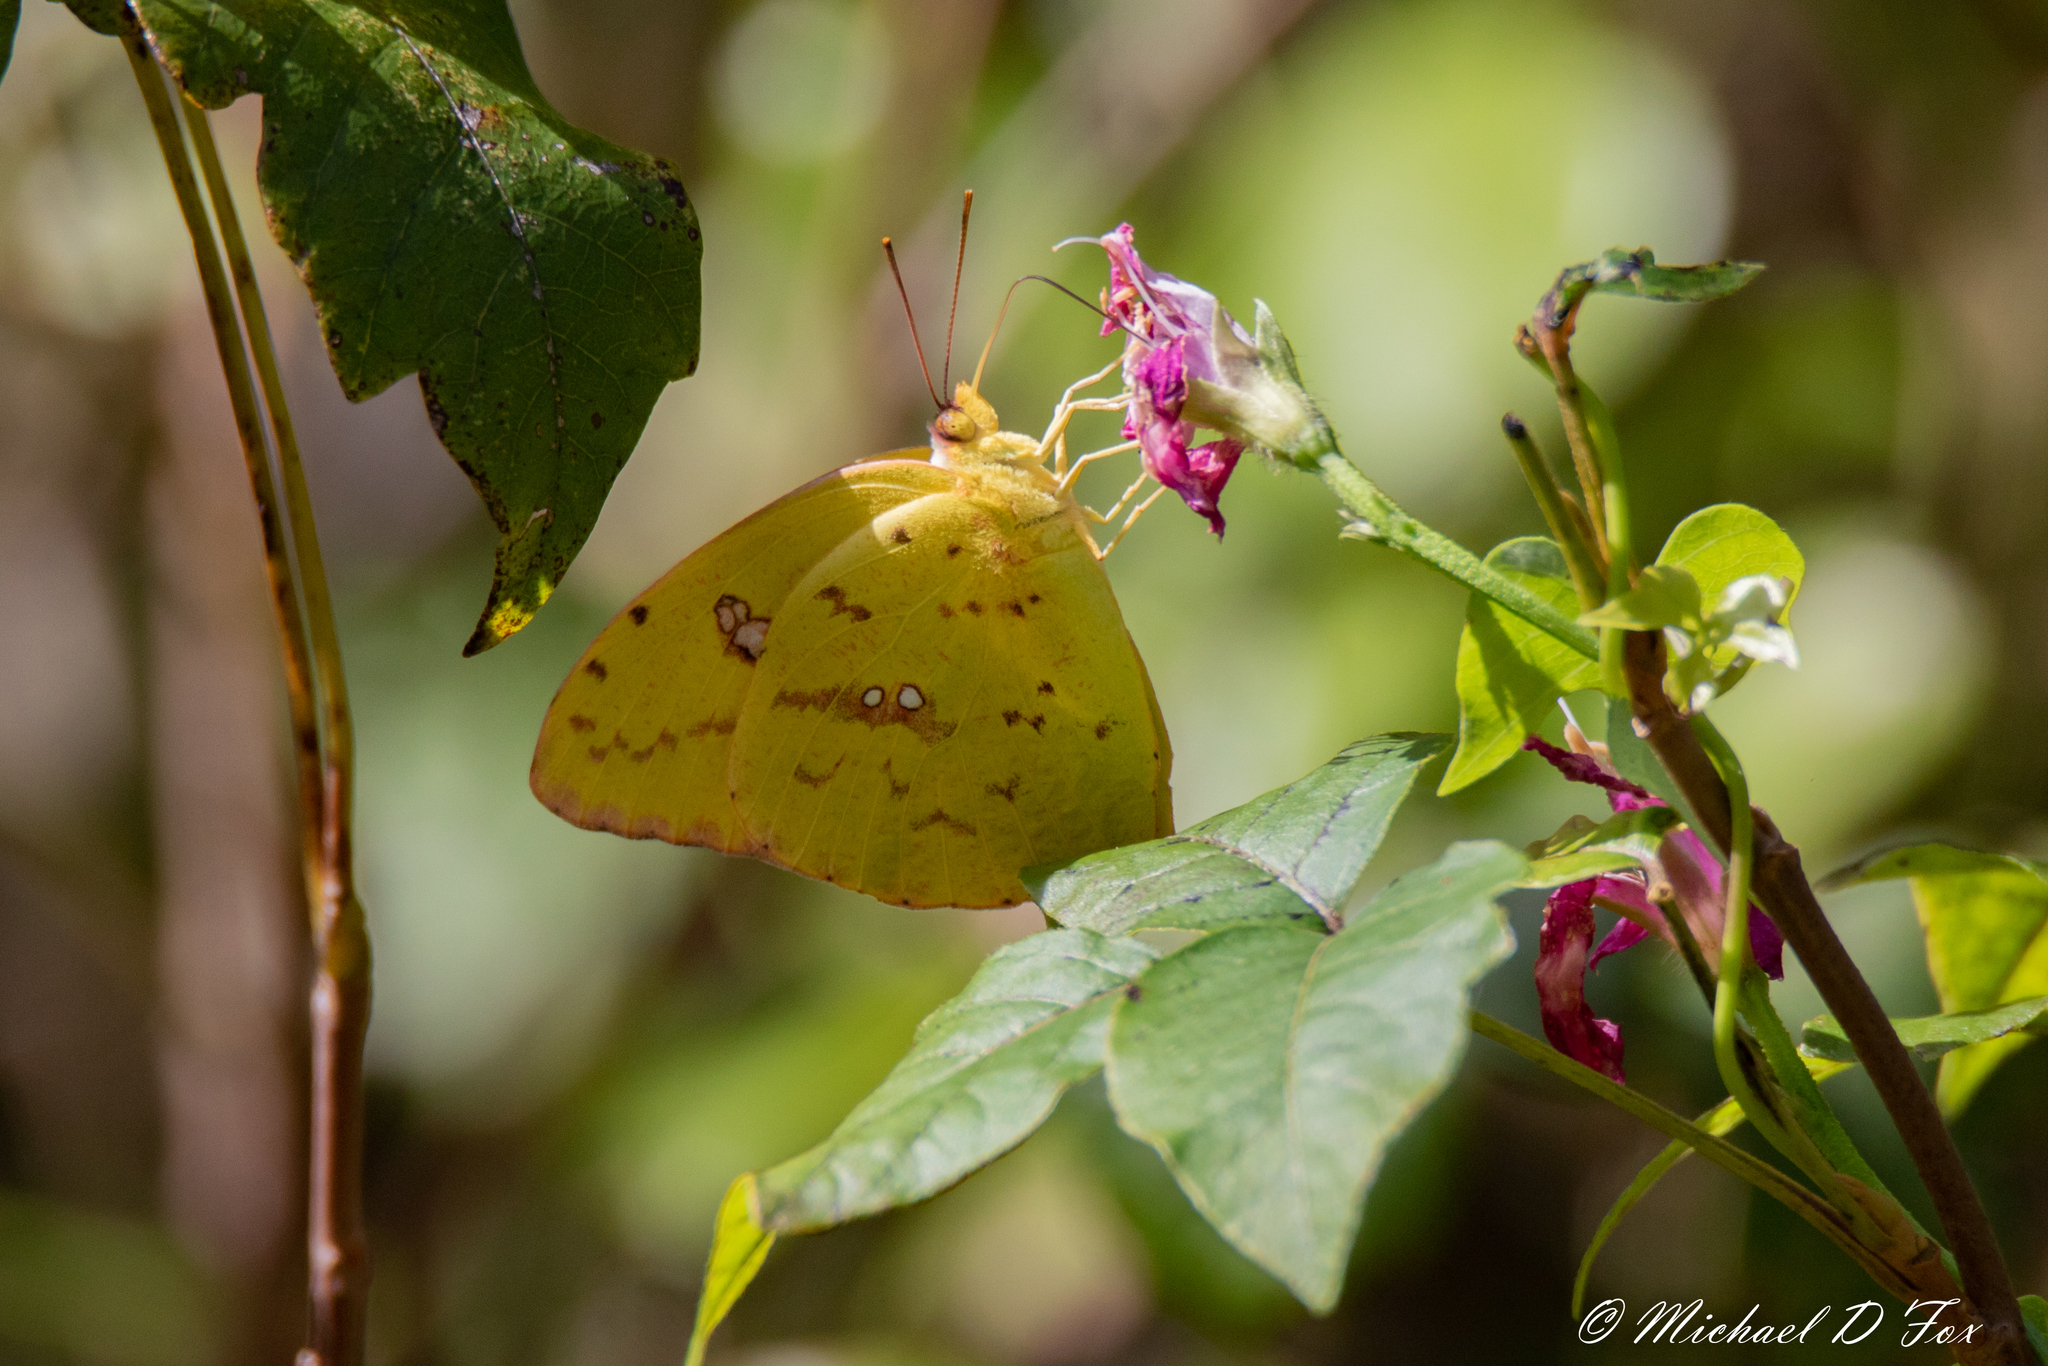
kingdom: Animalia
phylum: Arthropoda
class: Insecta
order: Lepidoptera
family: Pieridae
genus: Phoebis
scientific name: Phoebis sennae
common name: Cloudless sulphur
